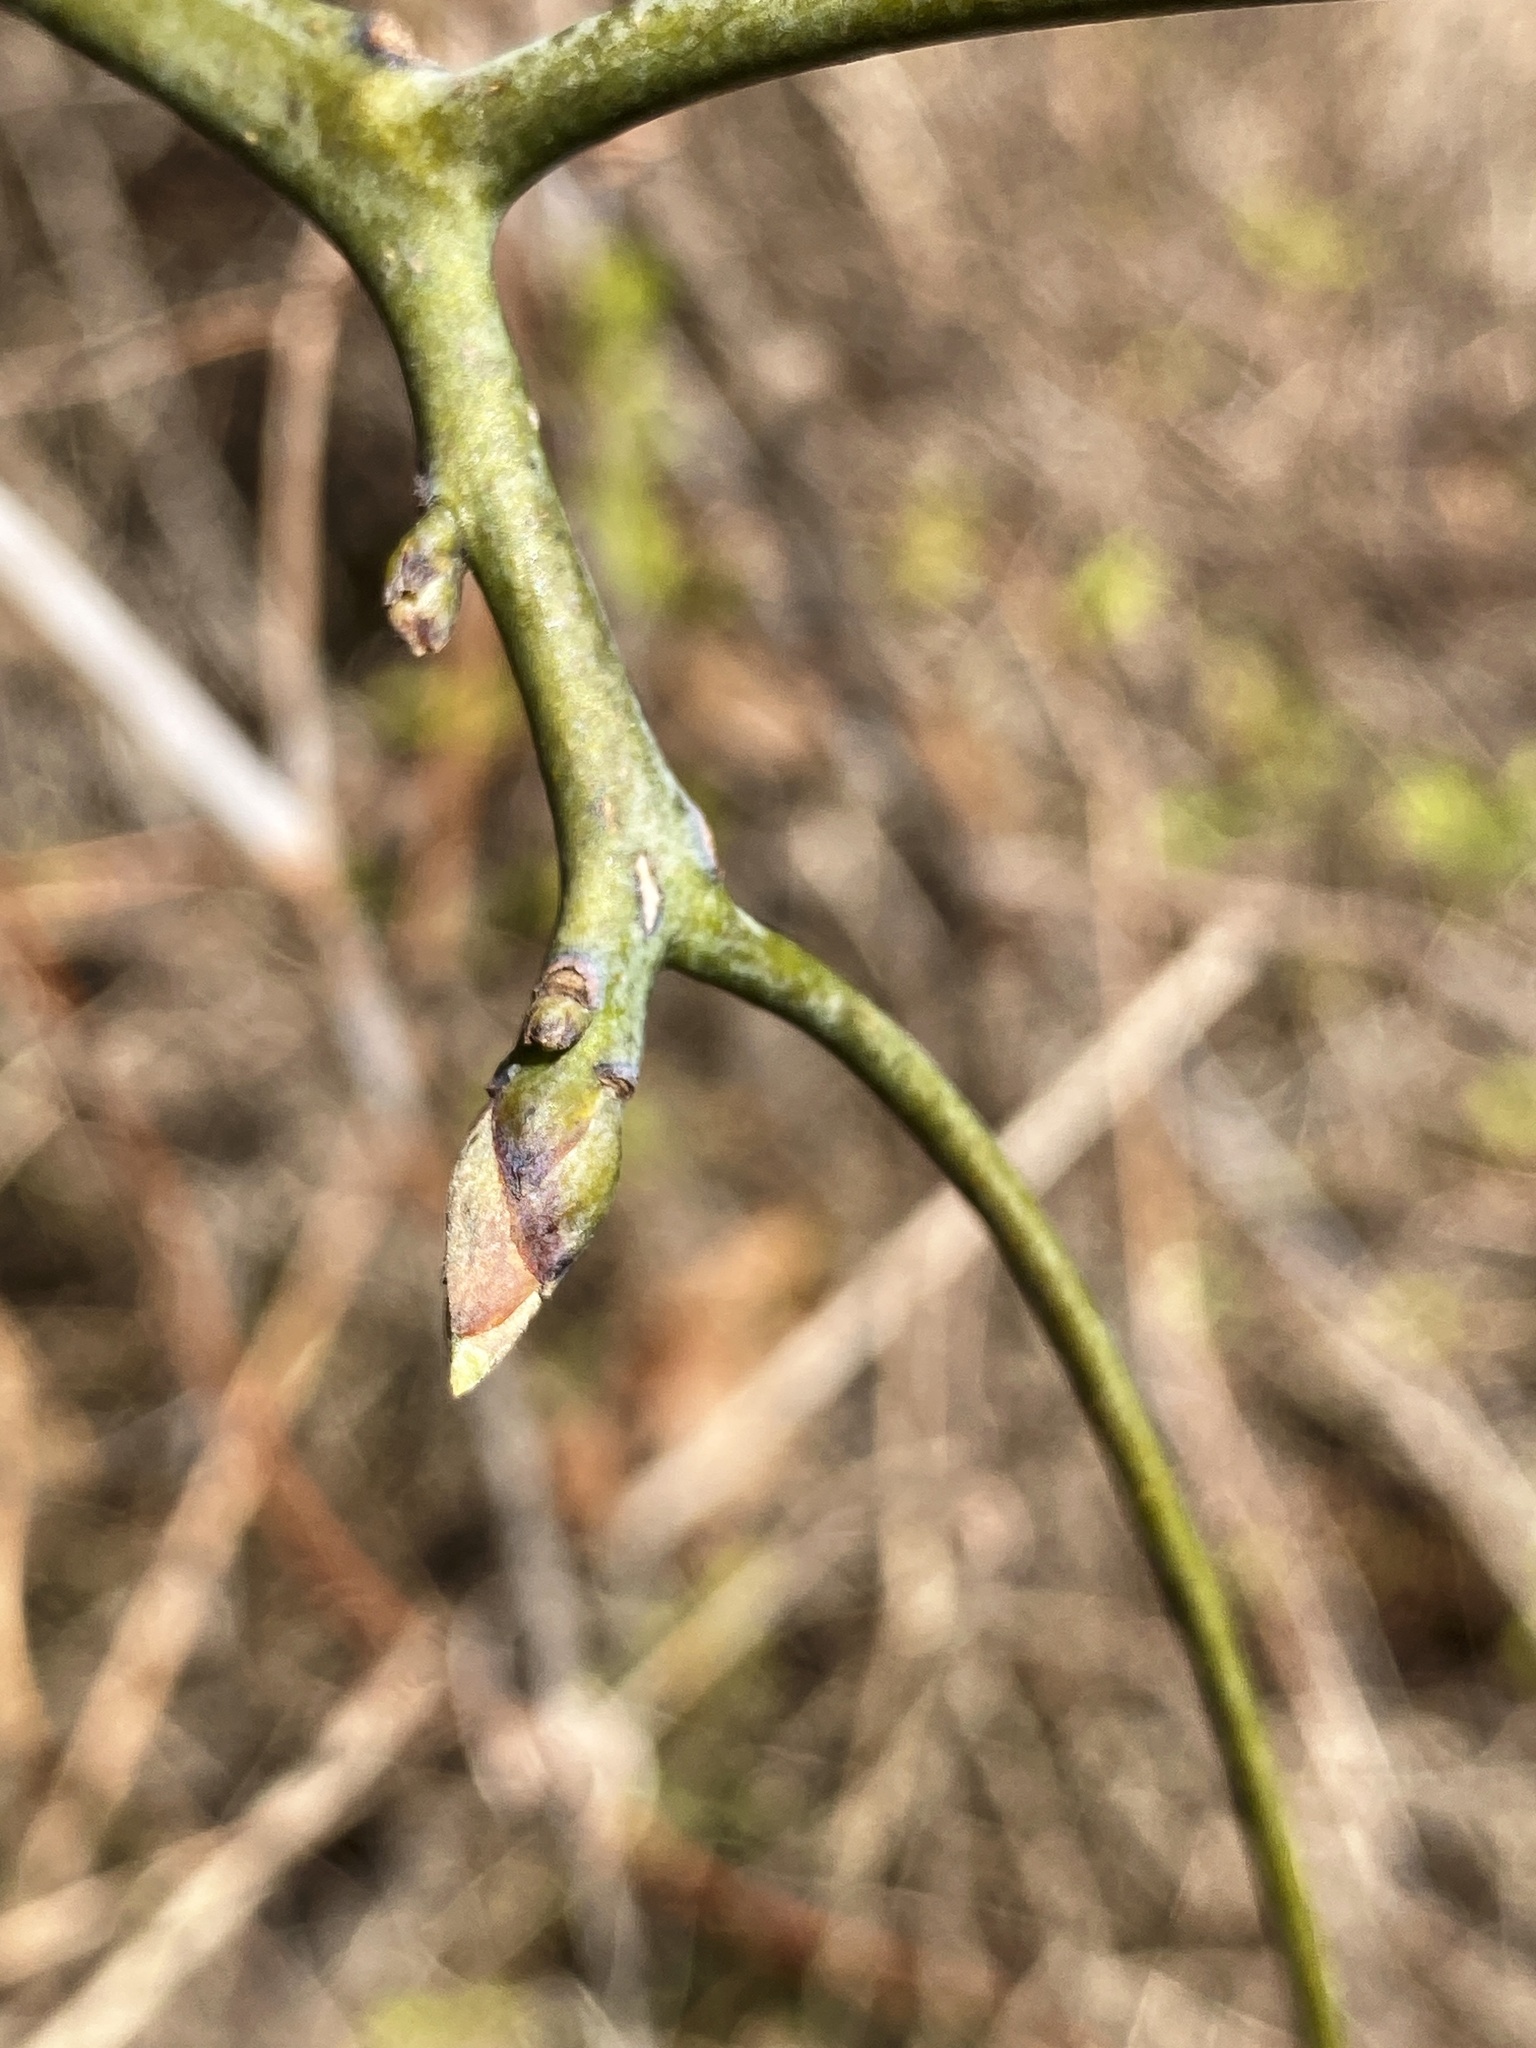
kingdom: Plantae
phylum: Tracheophyta
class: Magnoliopsida
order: Laurales
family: Lauraceae
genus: Sassafras
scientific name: Sassafras albidum
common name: Sassafras
